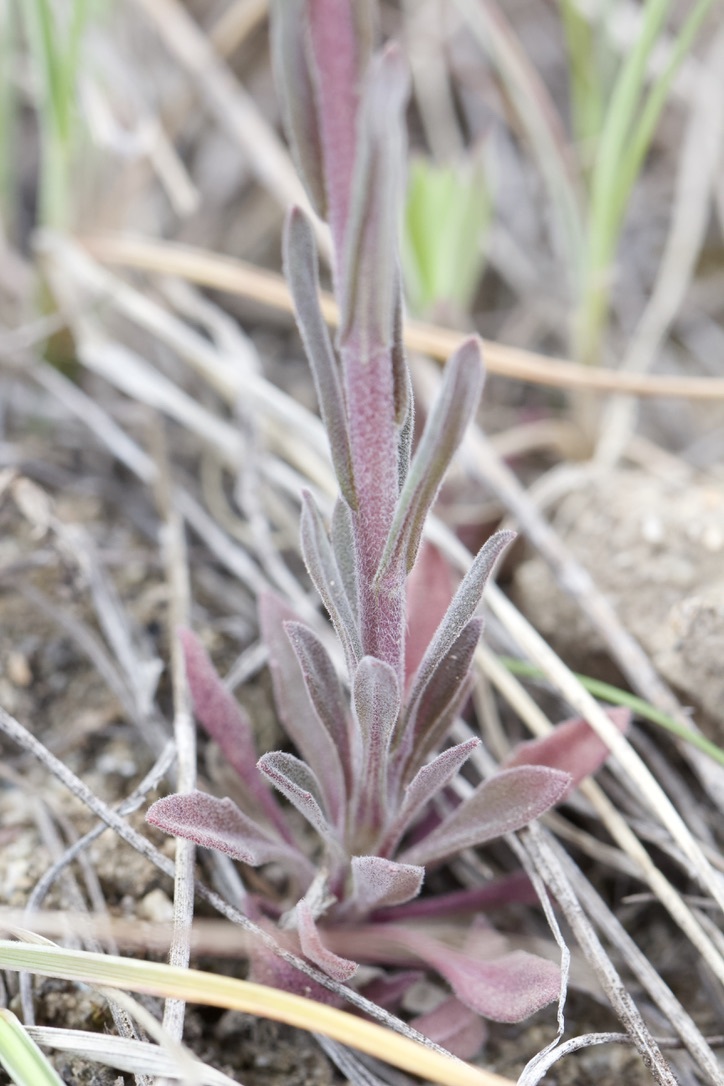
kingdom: Plantae
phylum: Tracheophyta
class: Magnoliopsida
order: Brassicales
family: Brassicaceae
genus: Boechera
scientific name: Boechera retrofracta
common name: Dangling suncress
